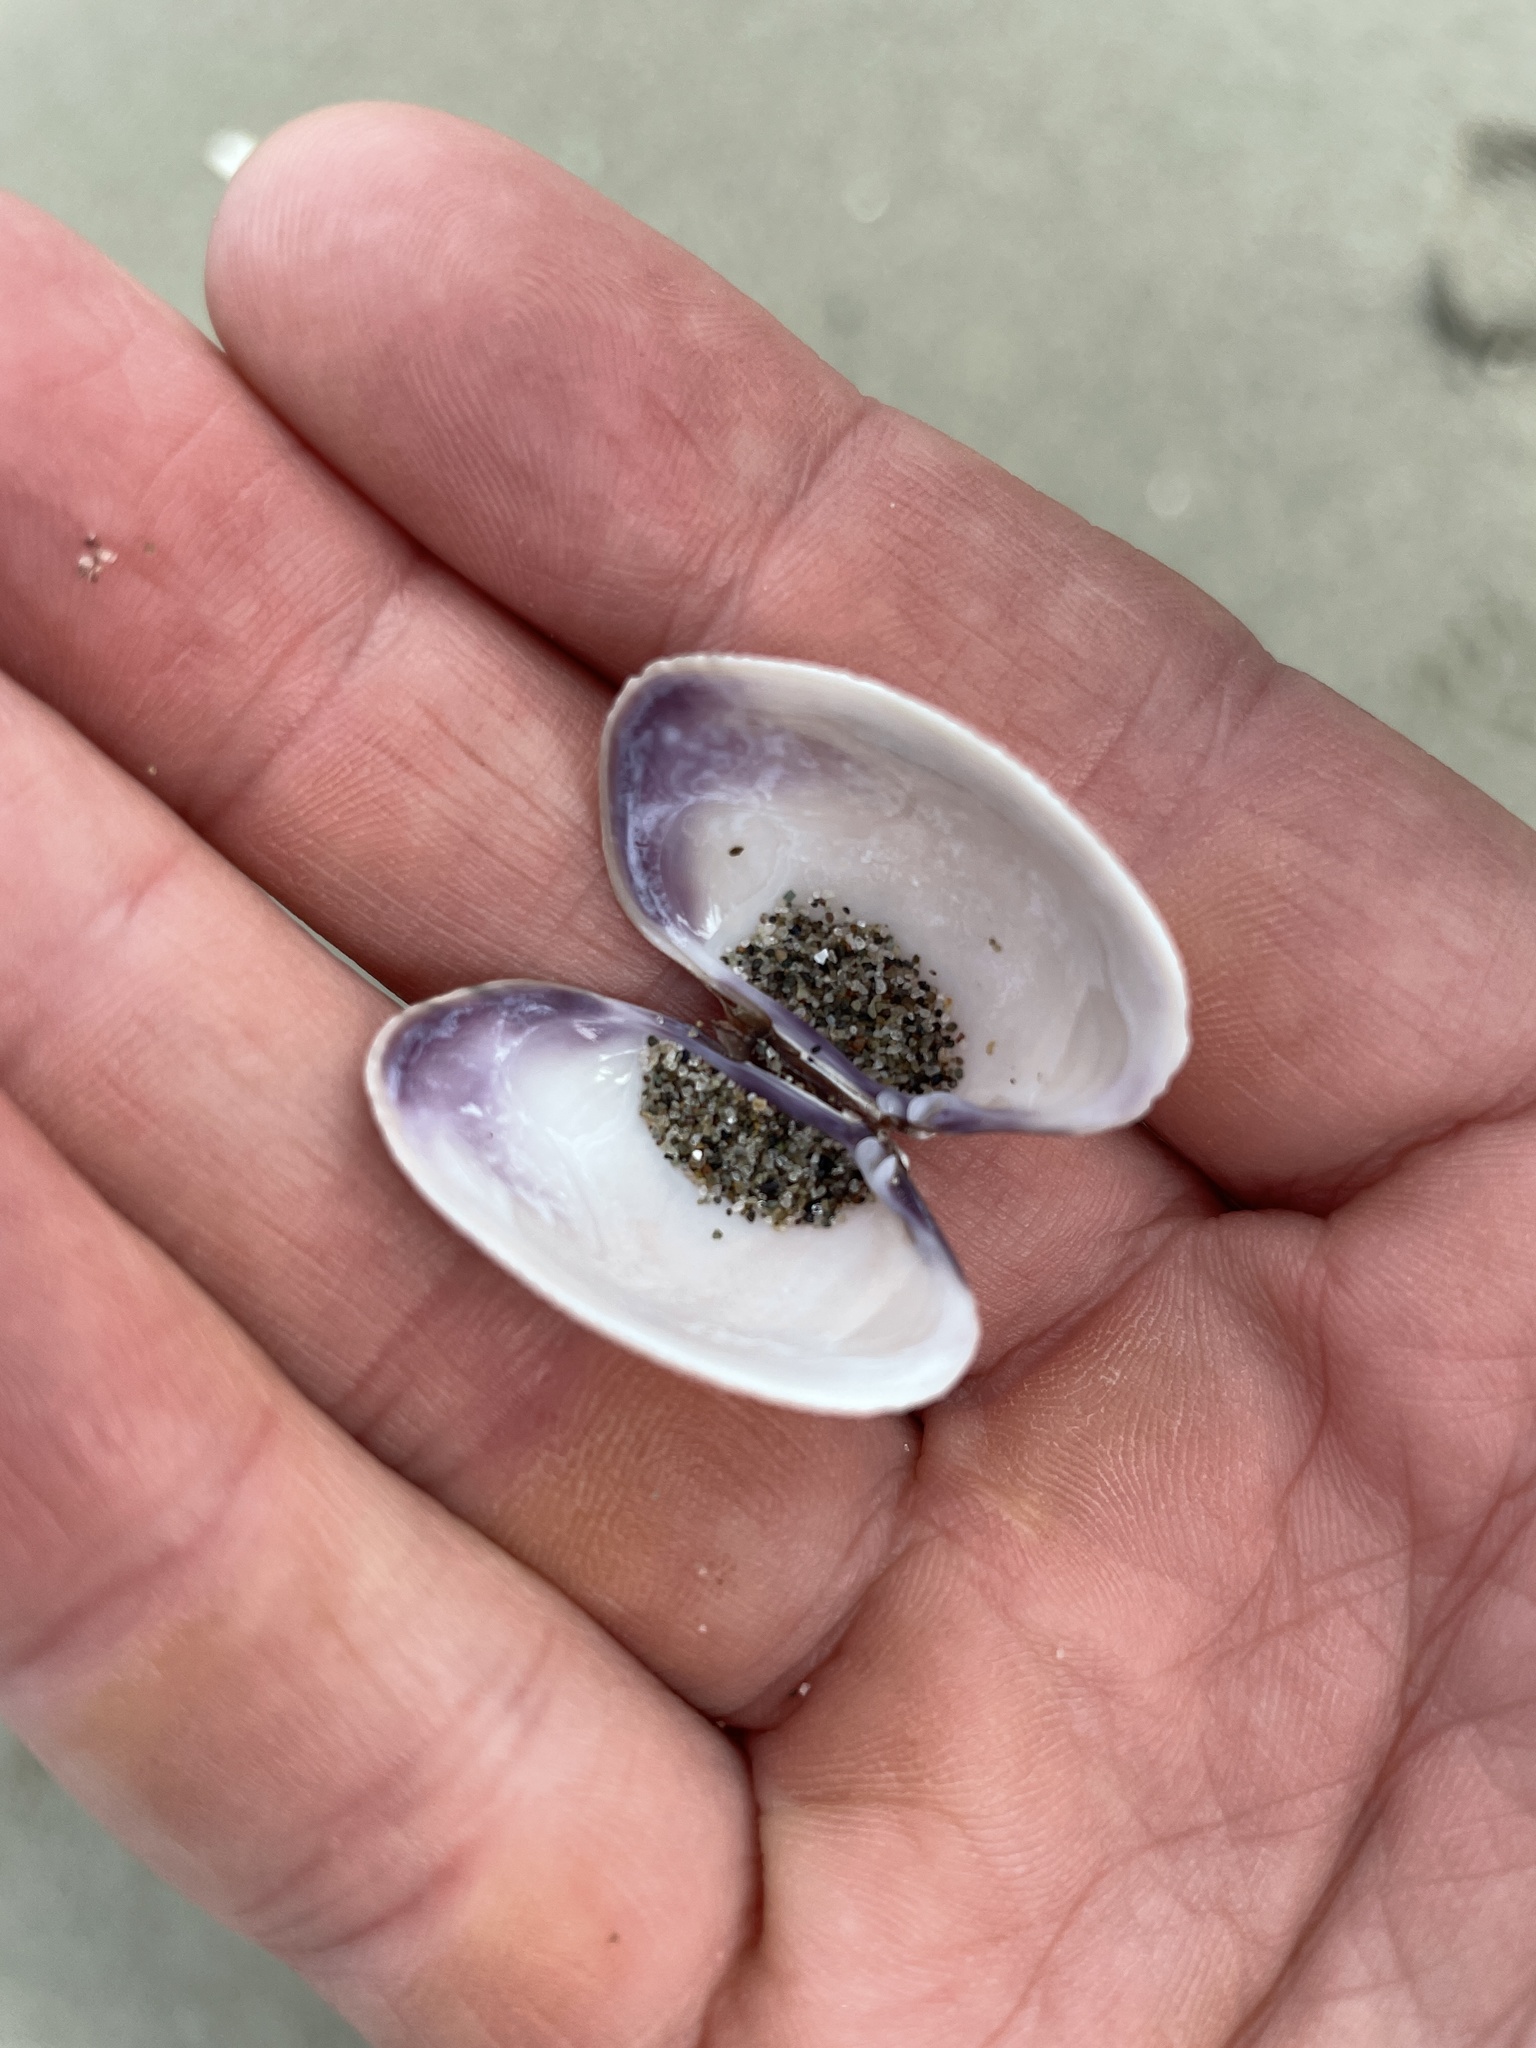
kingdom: Animalia
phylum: Mollusca
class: Bivalvia
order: Venerida
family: Veneridae
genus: Ruditapes
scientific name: Ruditapes philippinarum
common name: Manila clam
